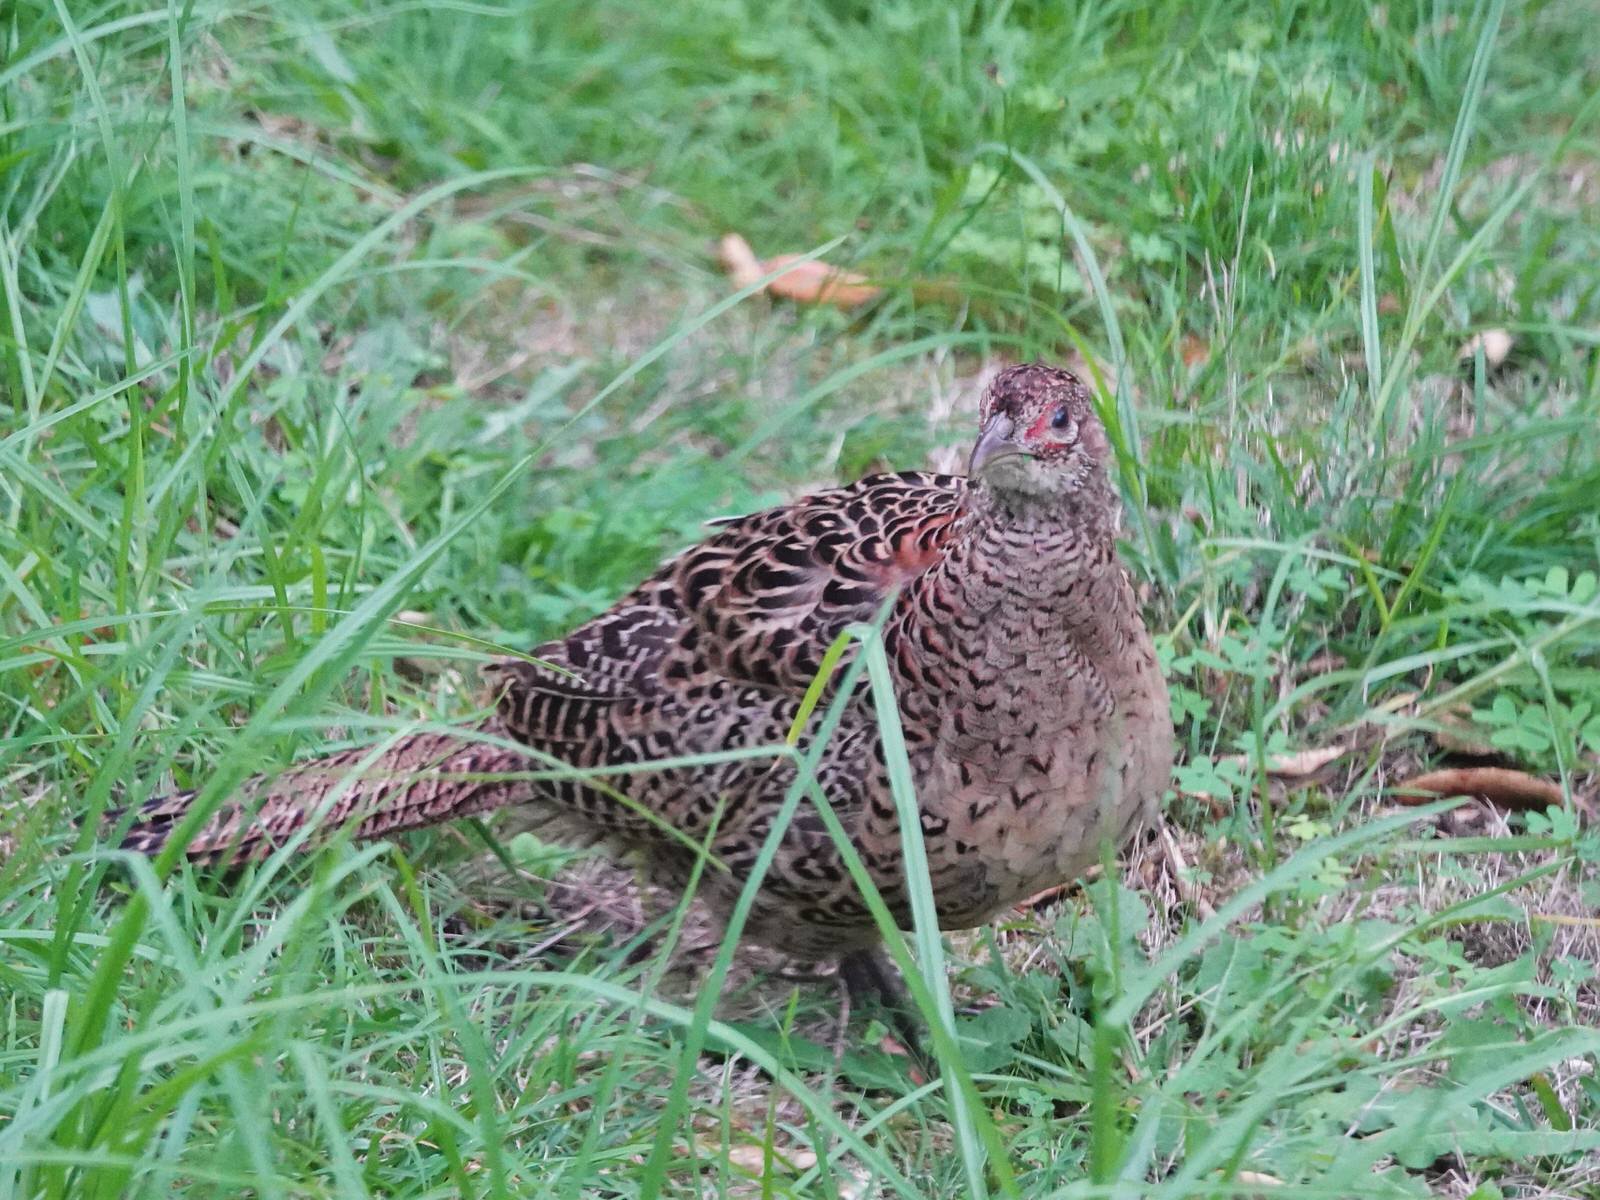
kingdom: Animalia
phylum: Chordata
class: Aves
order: Galliformes
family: Phasianidae
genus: Phasianus
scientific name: Phasianus colchicus
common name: Common pheasant
